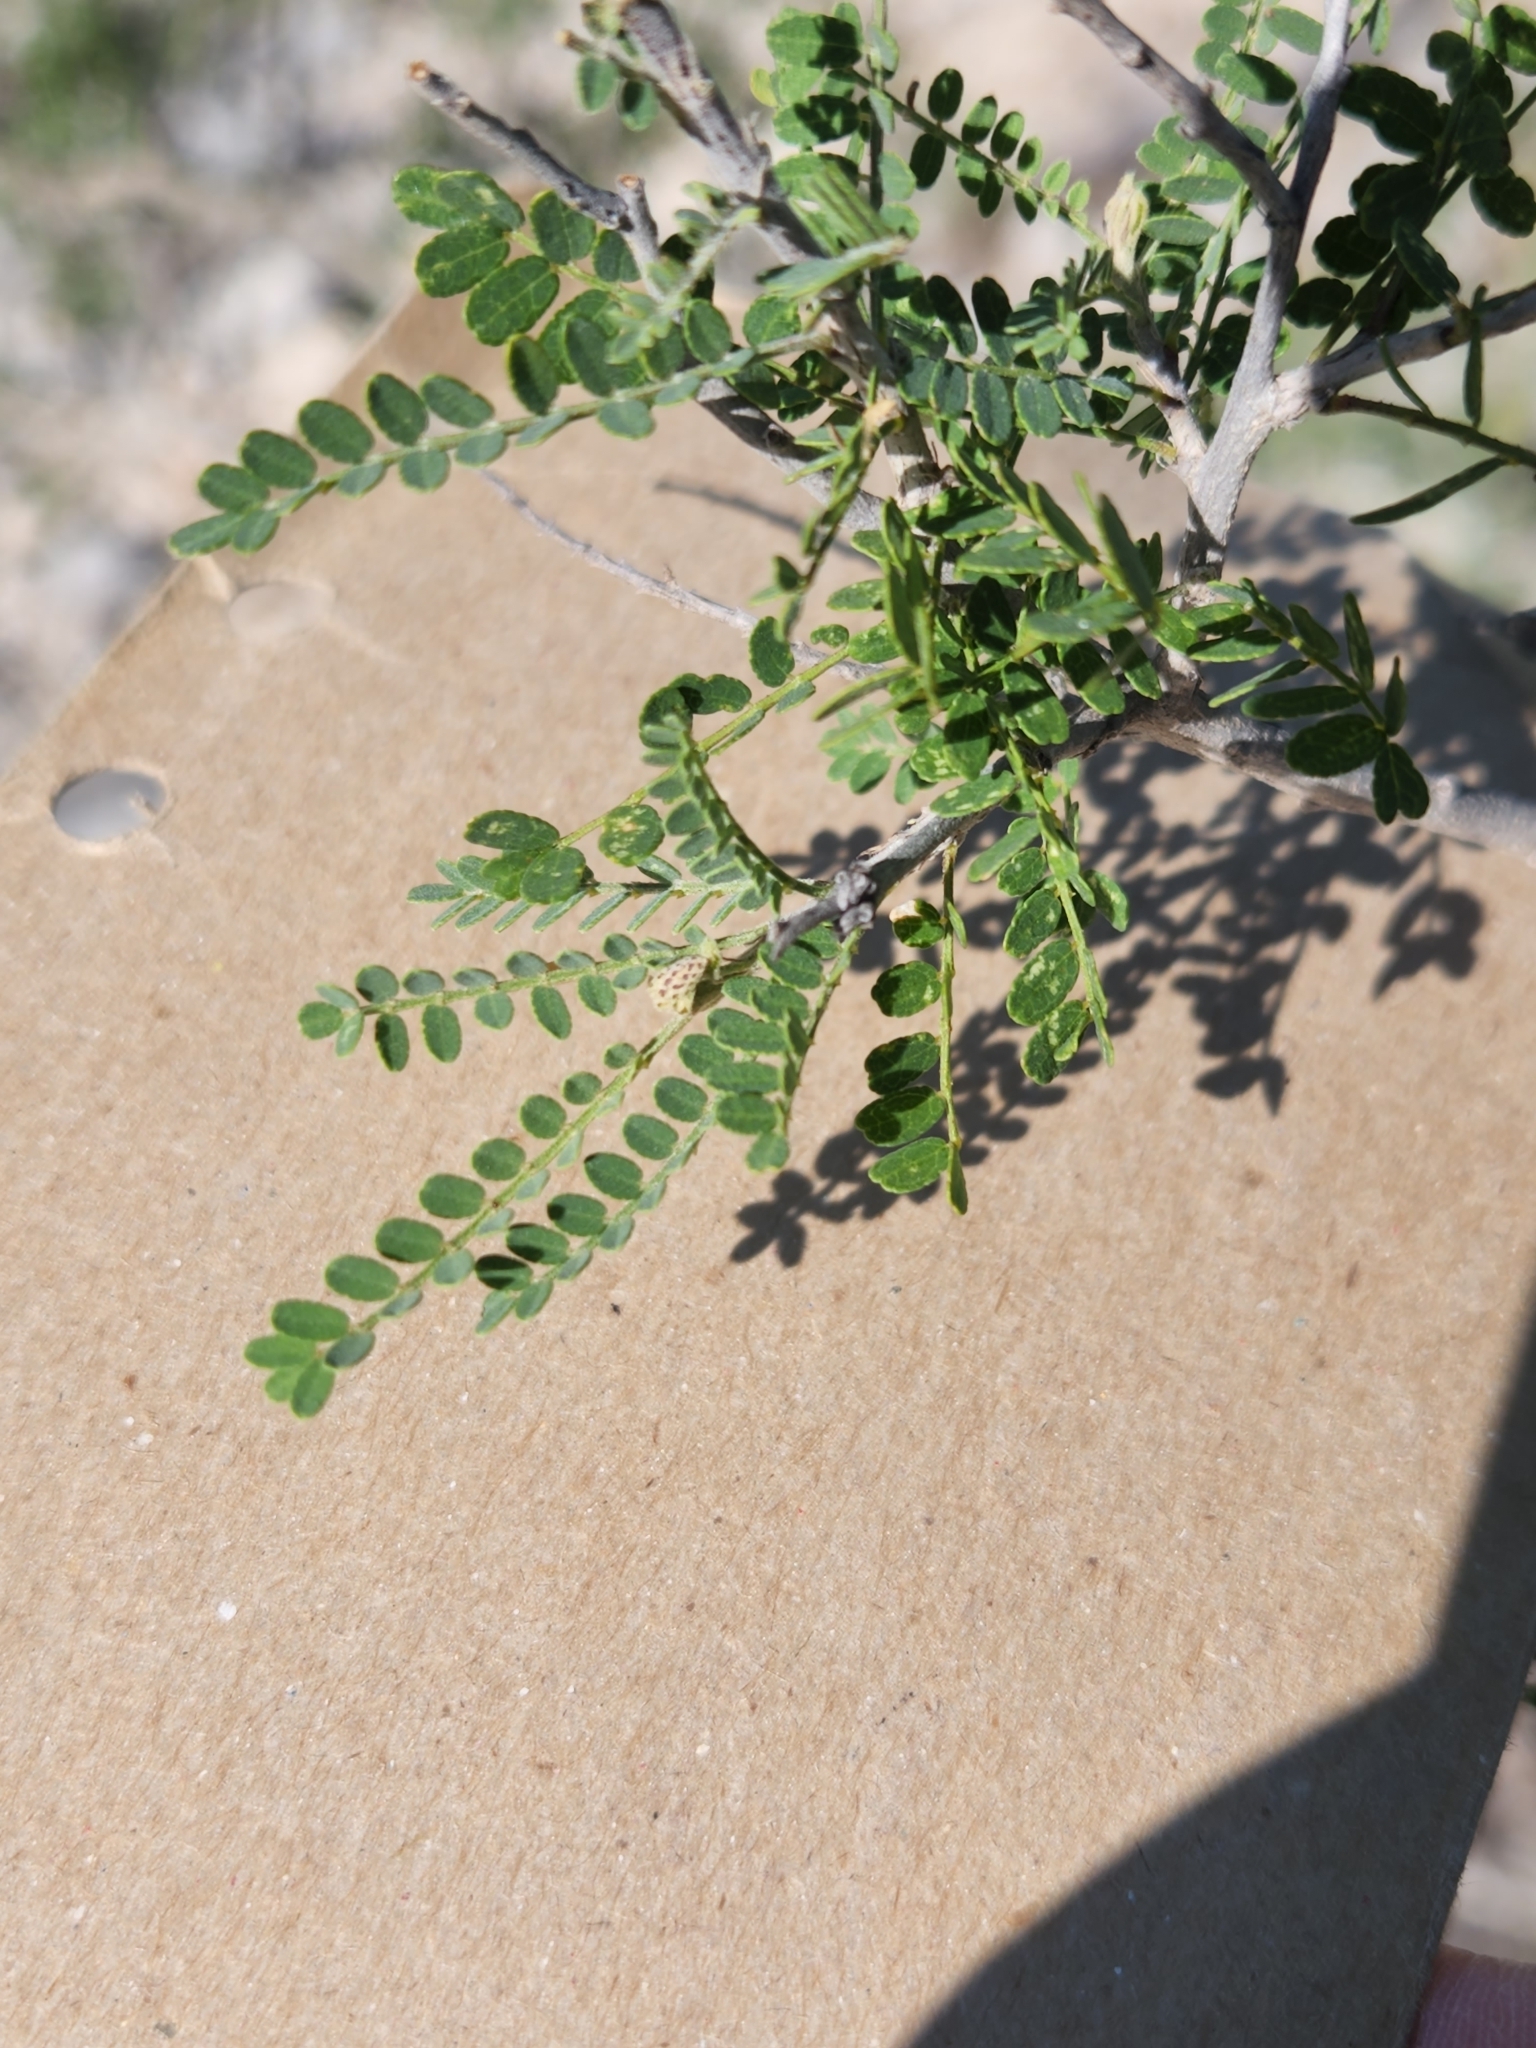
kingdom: Plantae
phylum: Tracheophyta
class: Magnoliopsida
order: Fabales
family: Fabaceae
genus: Eysenhardtia
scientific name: Eysenhardtia texana
